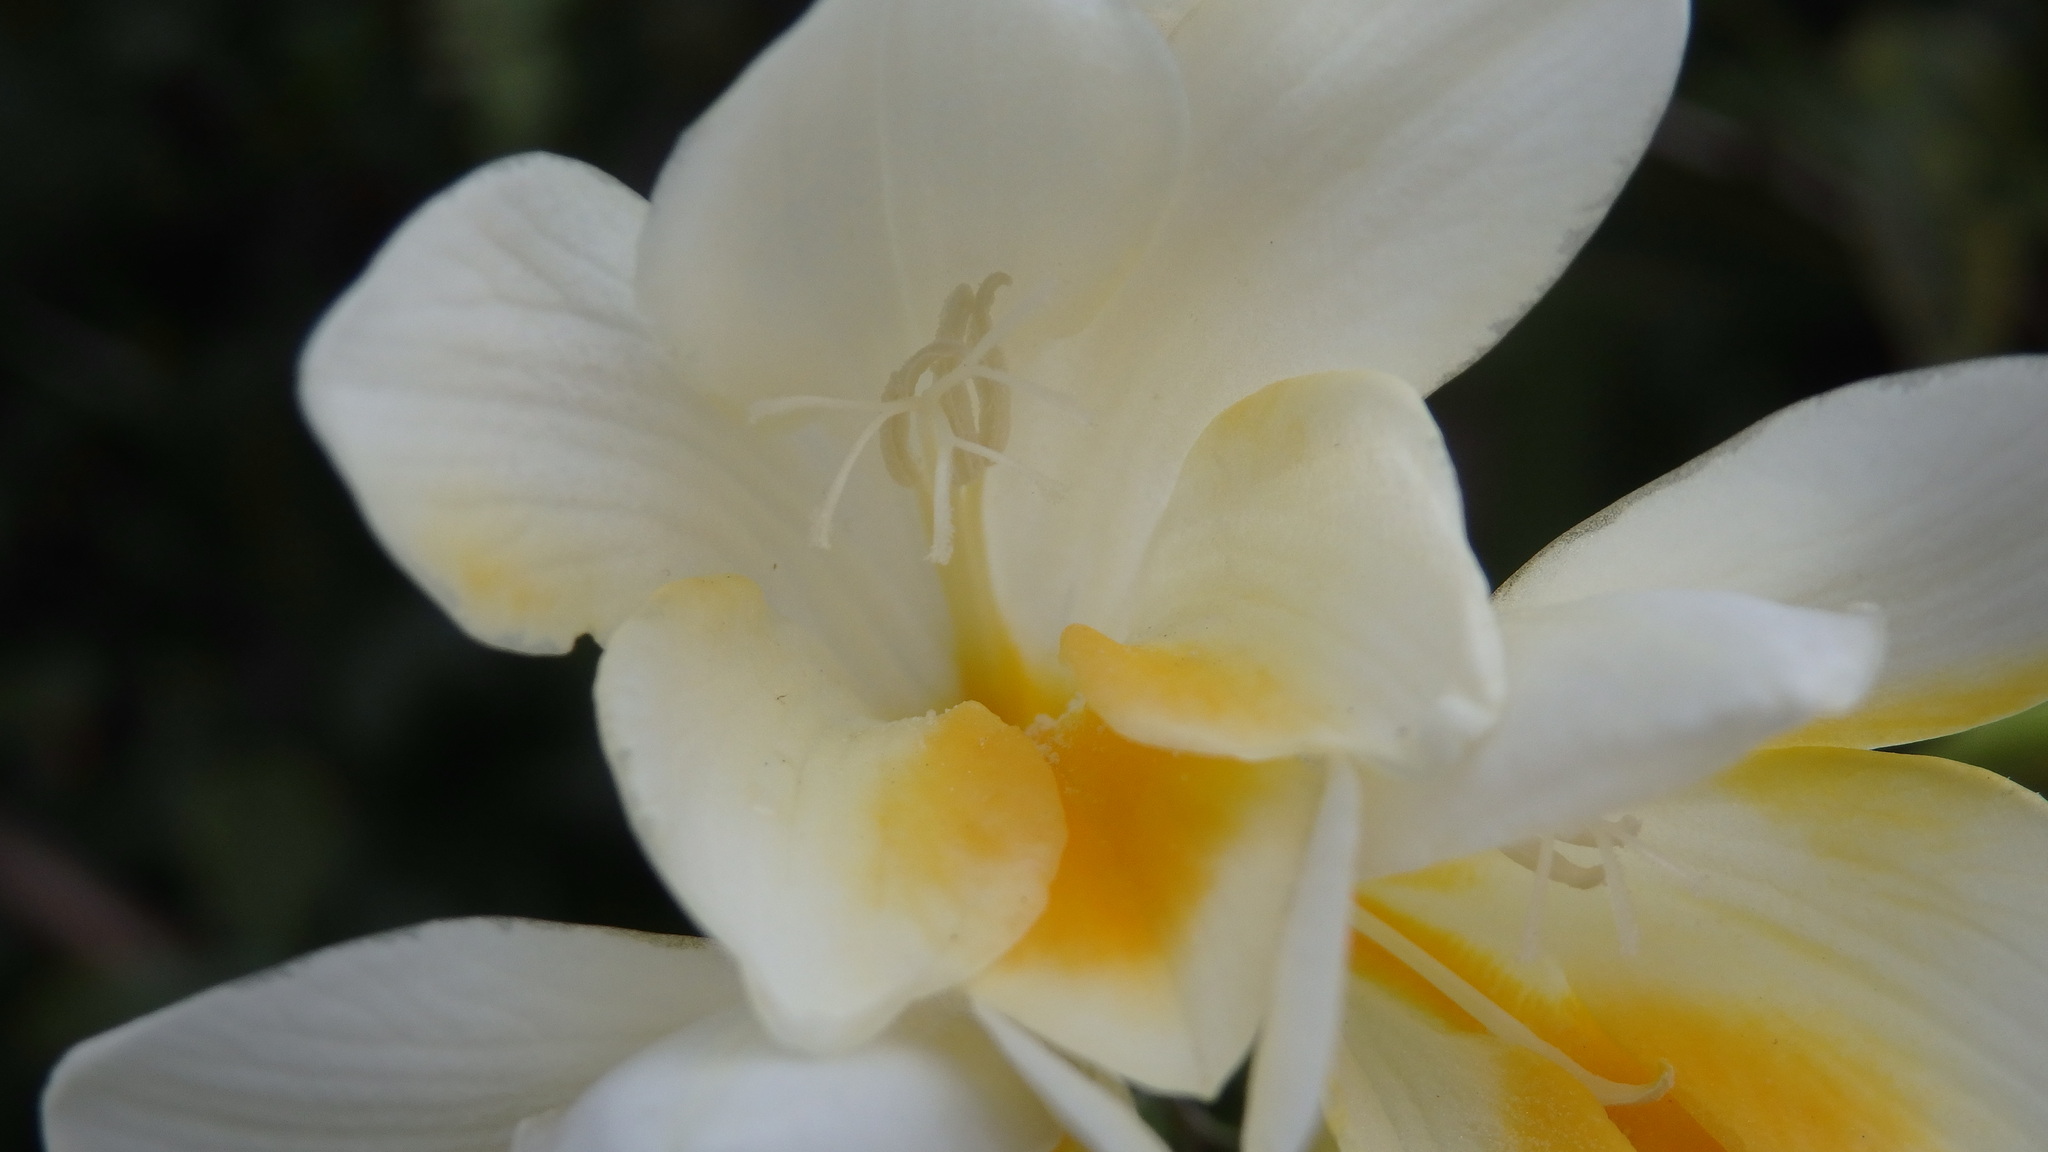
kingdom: Plantae
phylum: Tracheophyta
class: Liliopsida
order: Asparagales
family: Iridaceae
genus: Freesia
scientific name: Freesia leichtlinii
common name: Freesia
